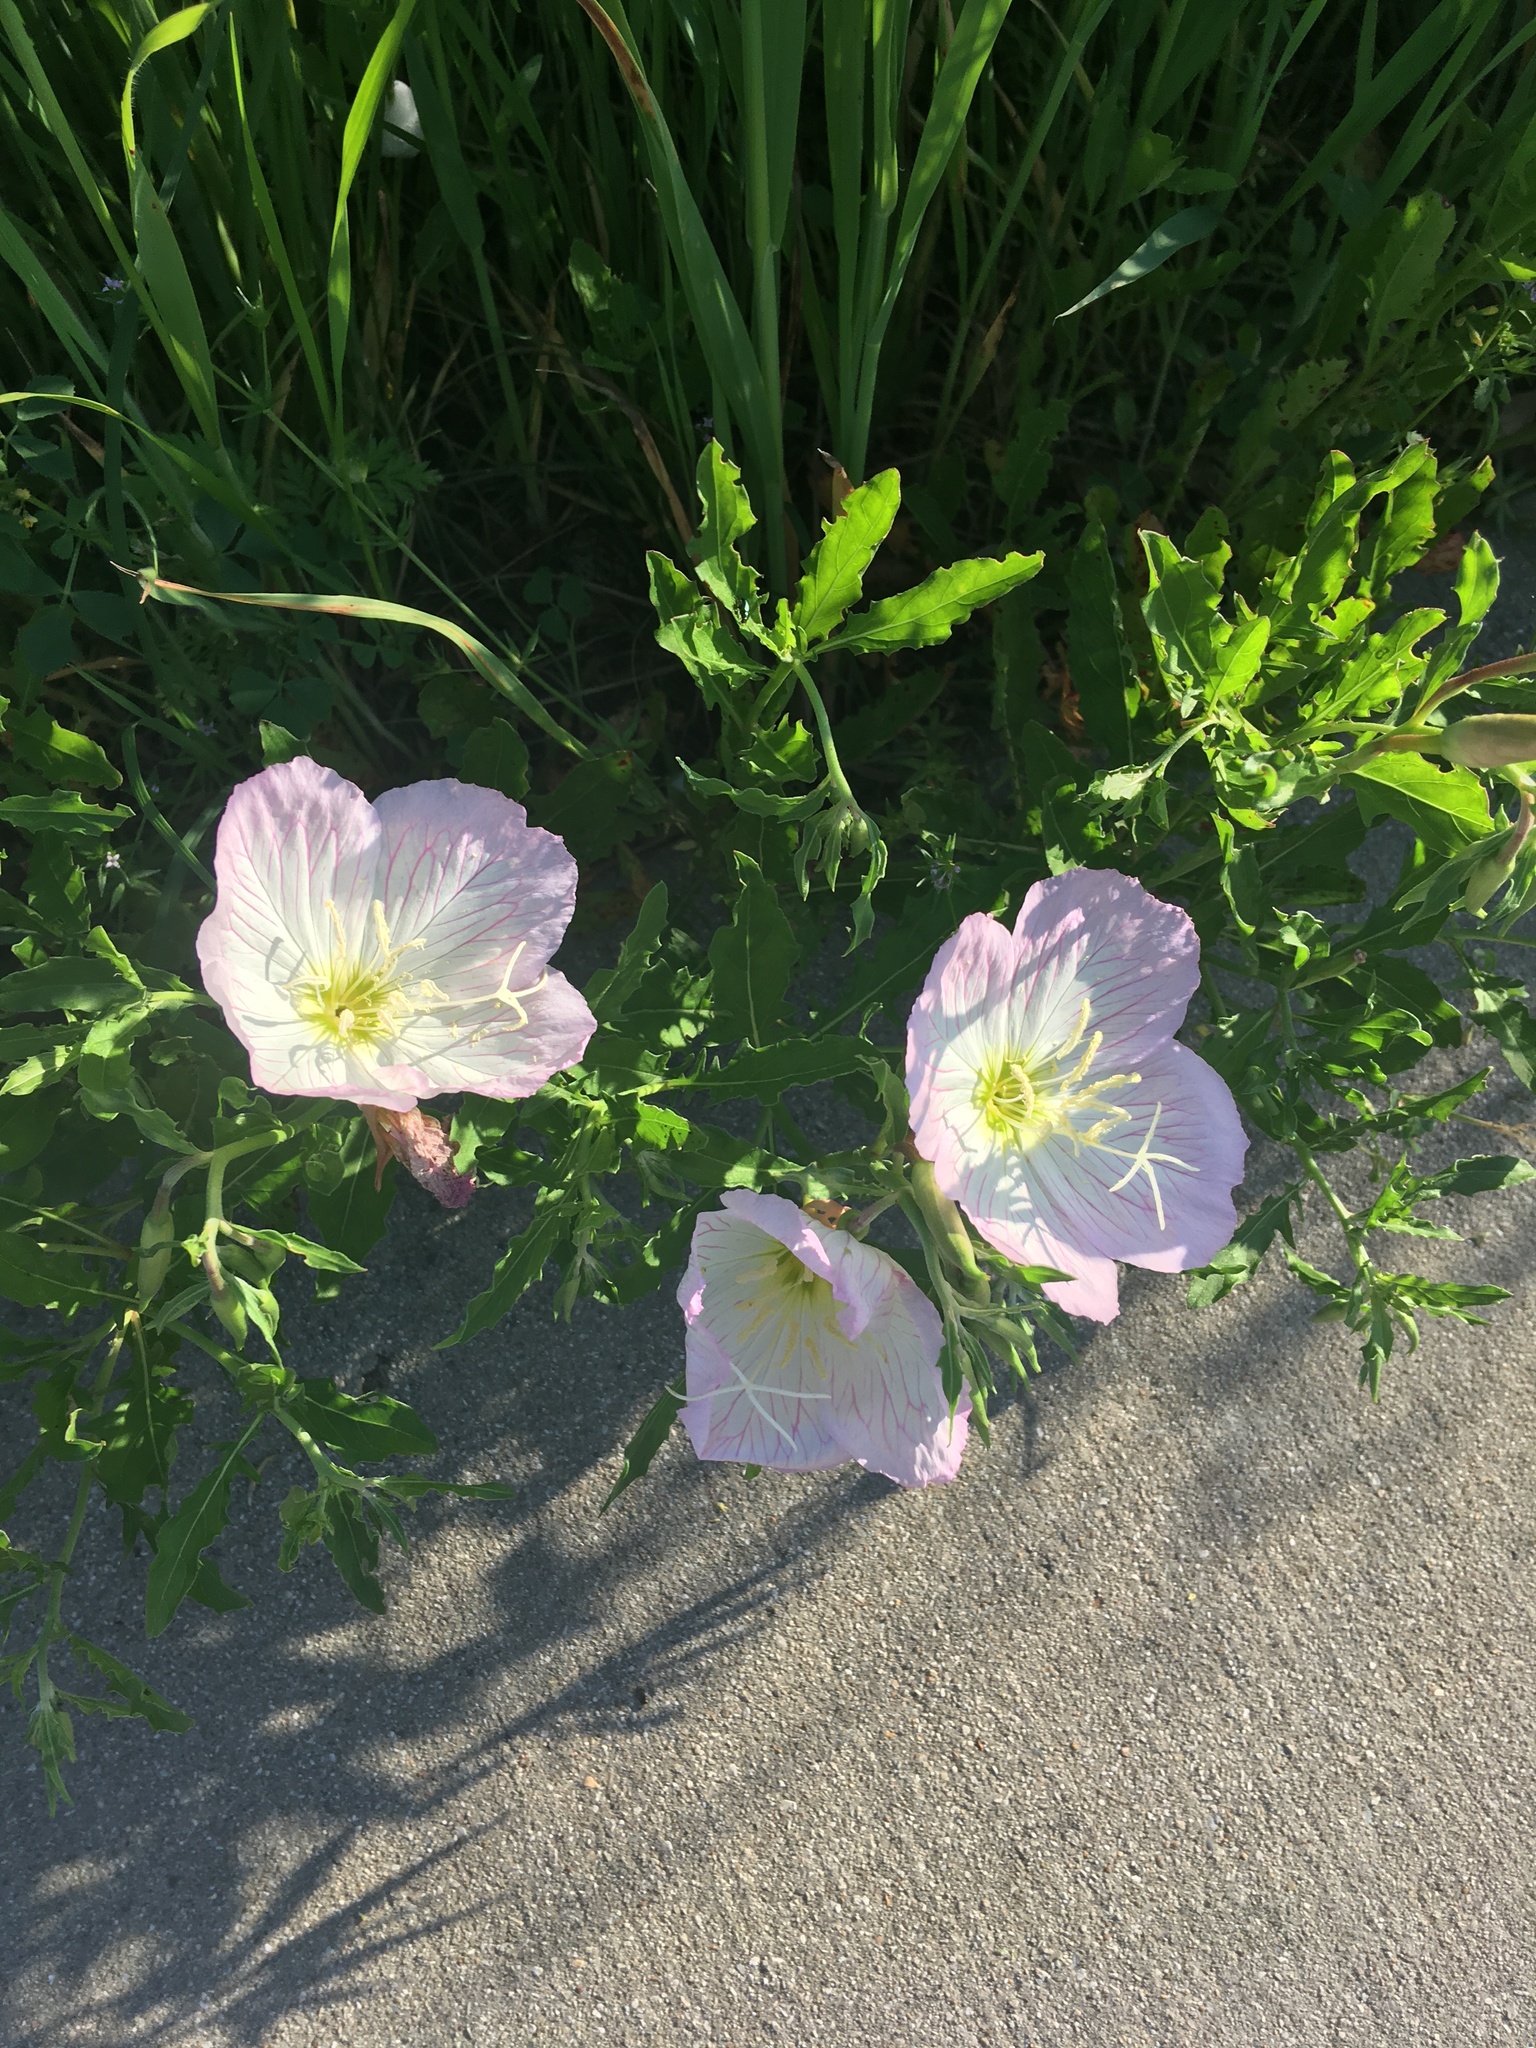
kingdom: Plantae
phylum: Tracheophyta
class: Magnoliopsida
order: Myrtales
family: Onagraceae
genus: Oenothera
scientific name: Oenothera speciosa
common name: White evening-primrose
